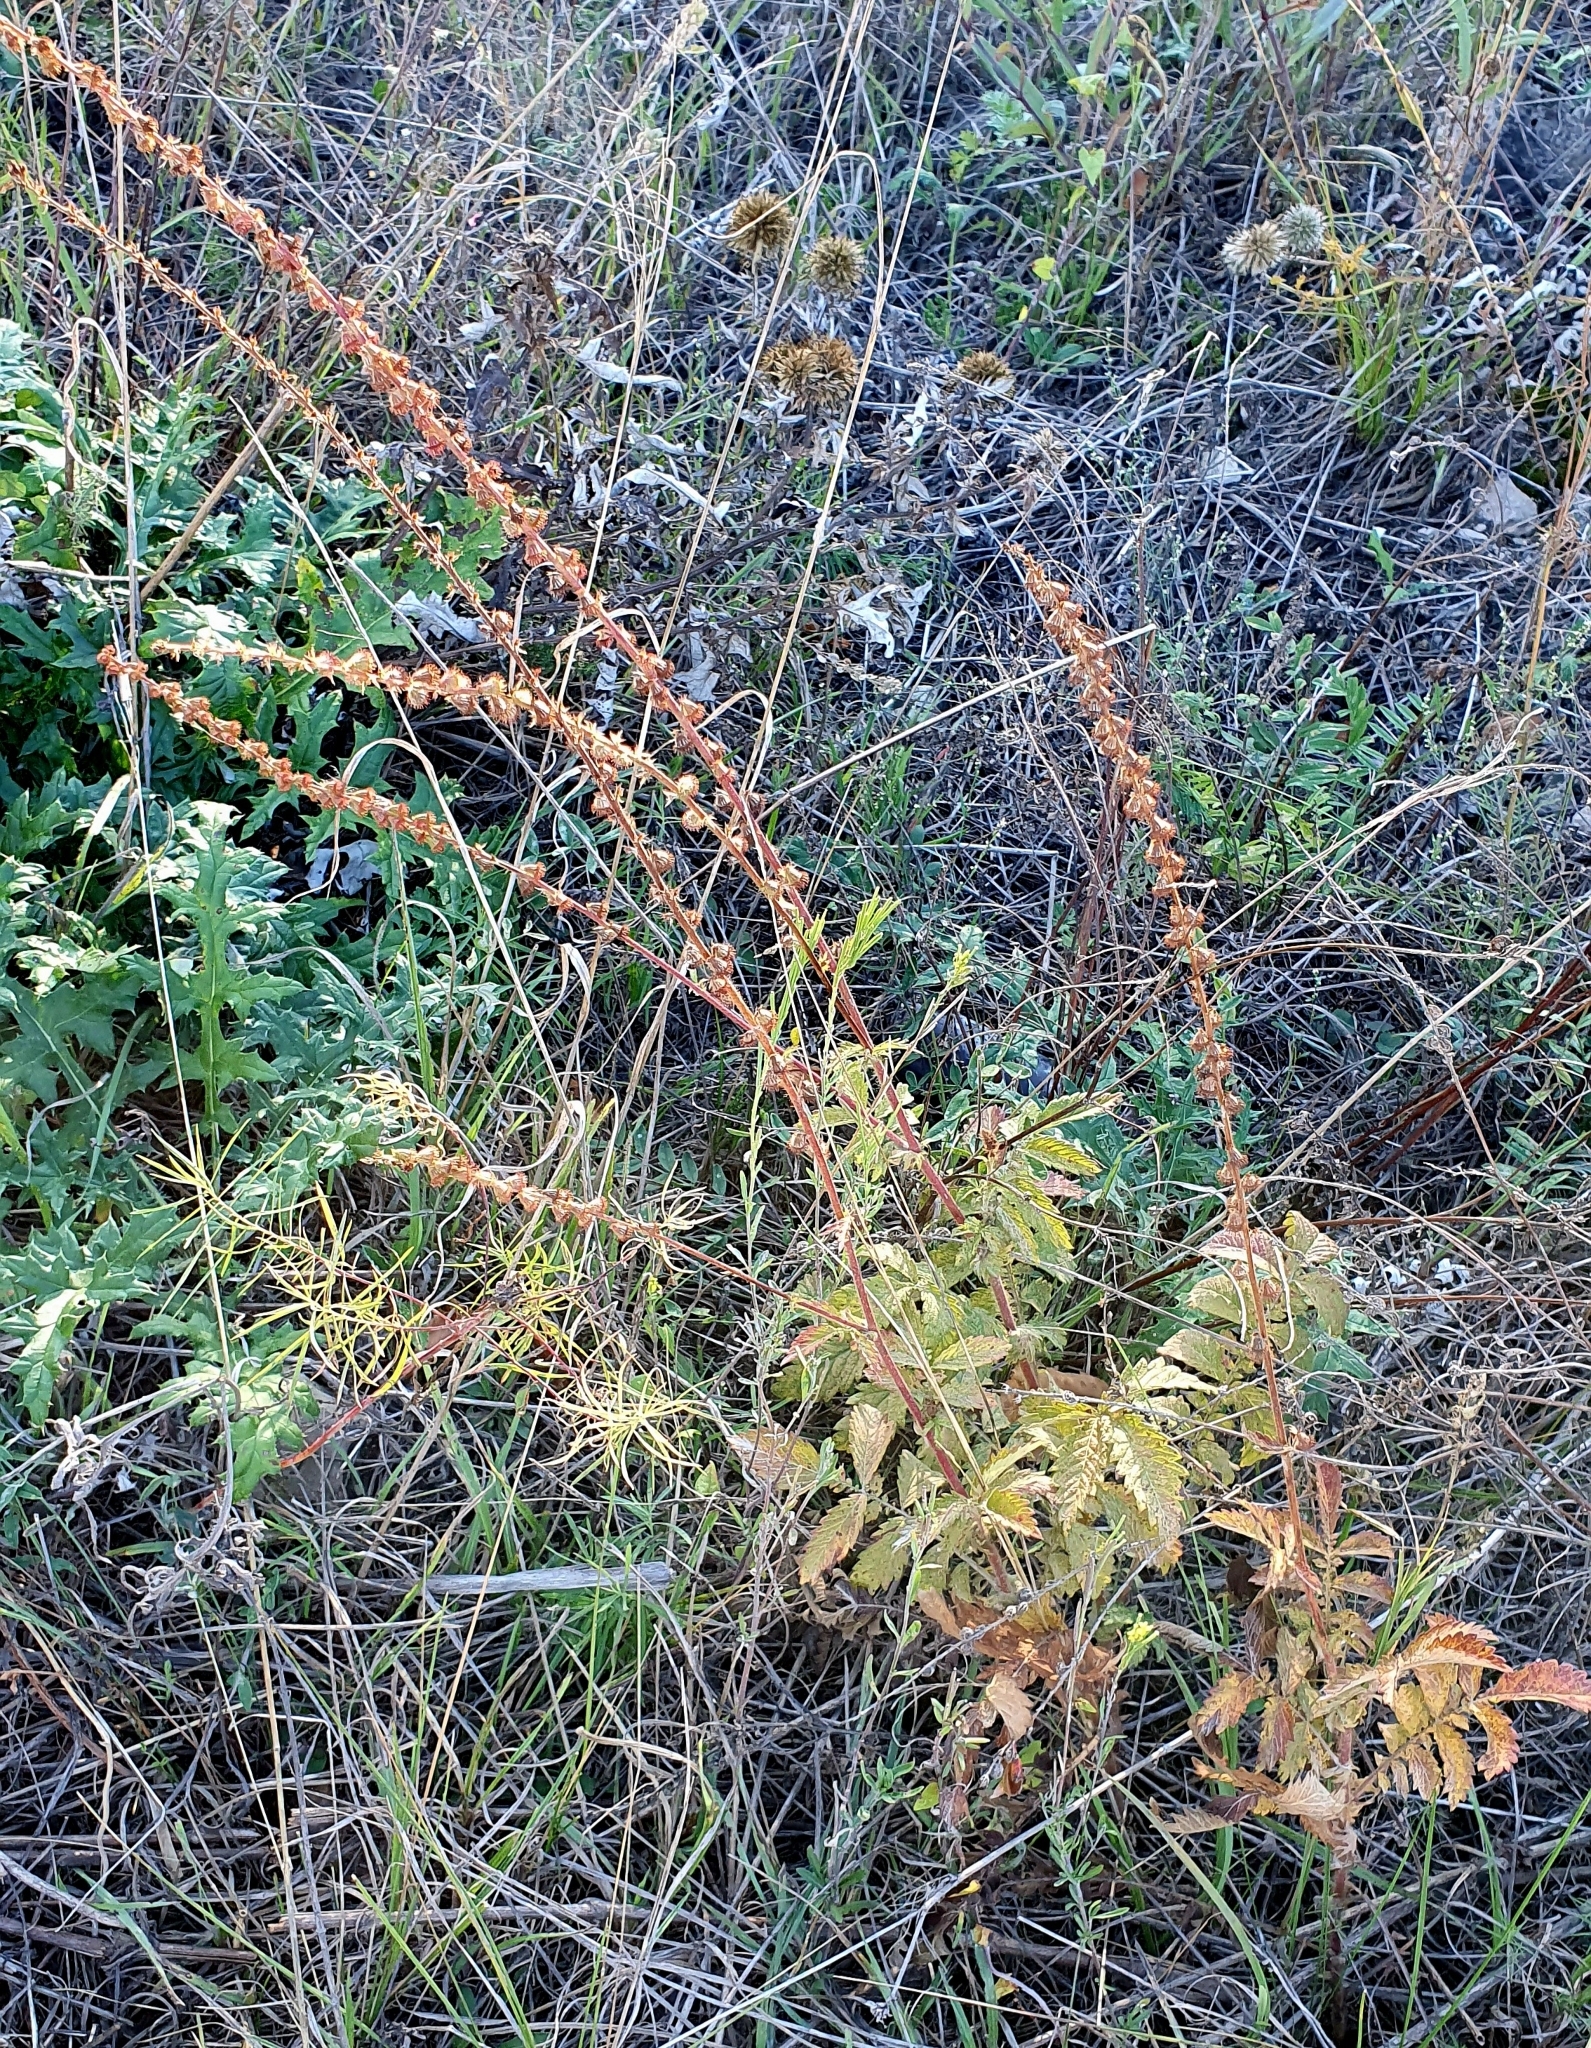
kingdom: Plantae
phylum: Tracheophyta
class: Magnoliopsida
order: Rosales
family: Rosaceae
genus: Agrimonia
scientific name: Agrimonia eupatoria
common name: Agrimony
